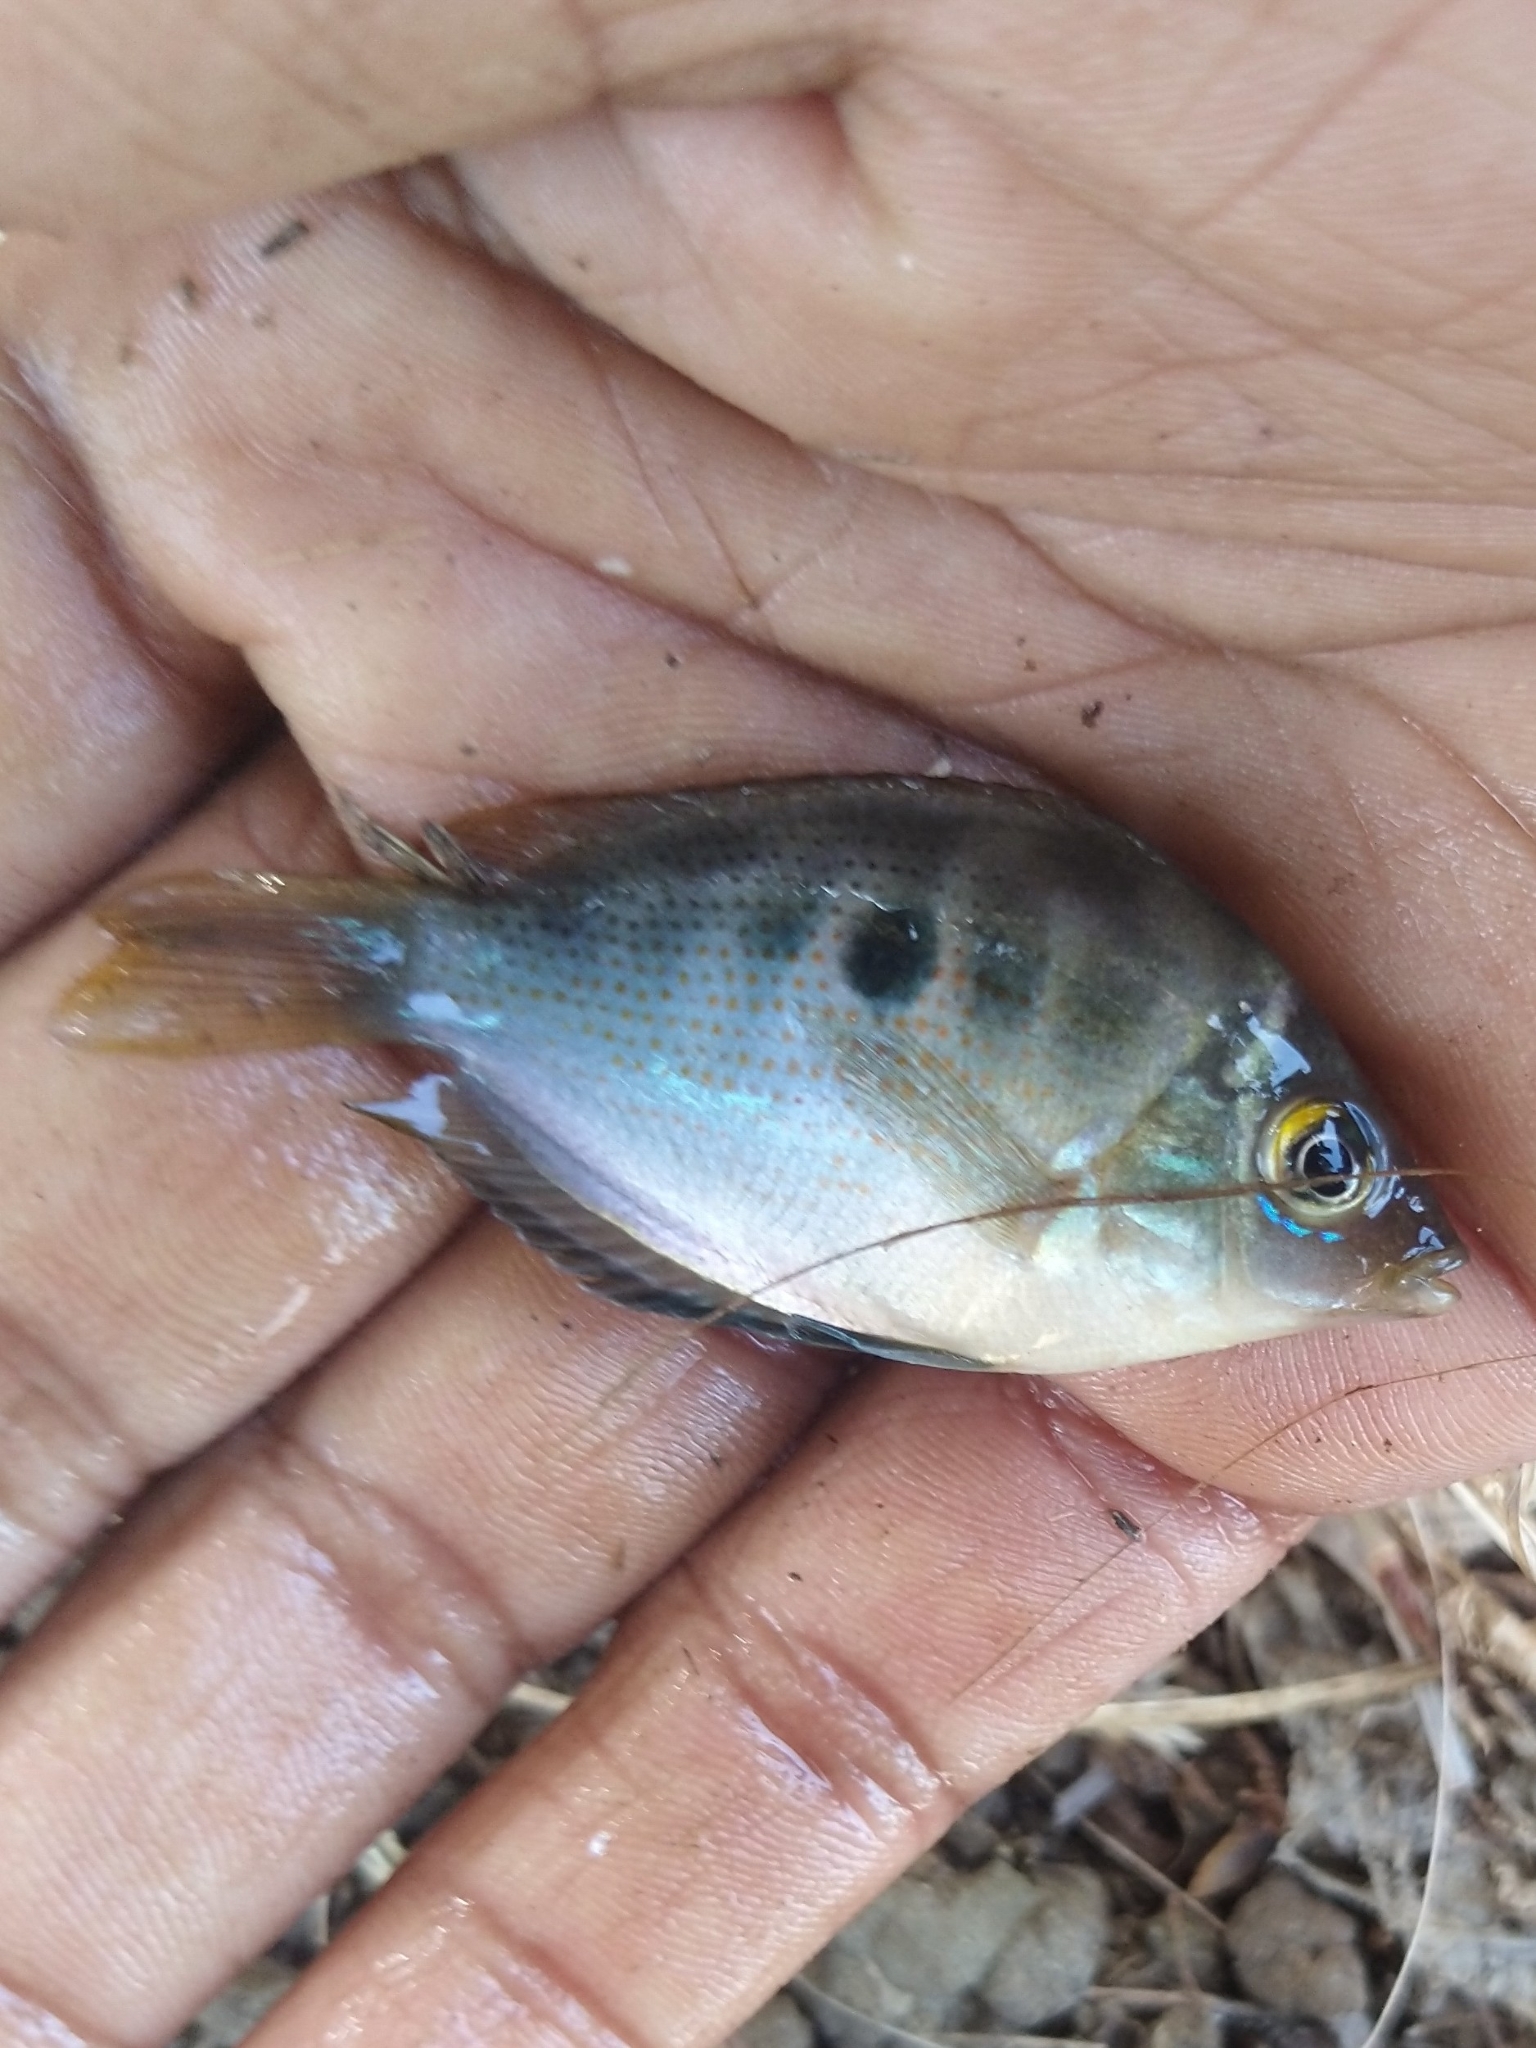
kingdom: Animalia
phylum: Chordata
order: Perciformes
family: Cichlidae
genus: Etroplus
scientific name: Etroplus maculatus
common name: Orange chromide
